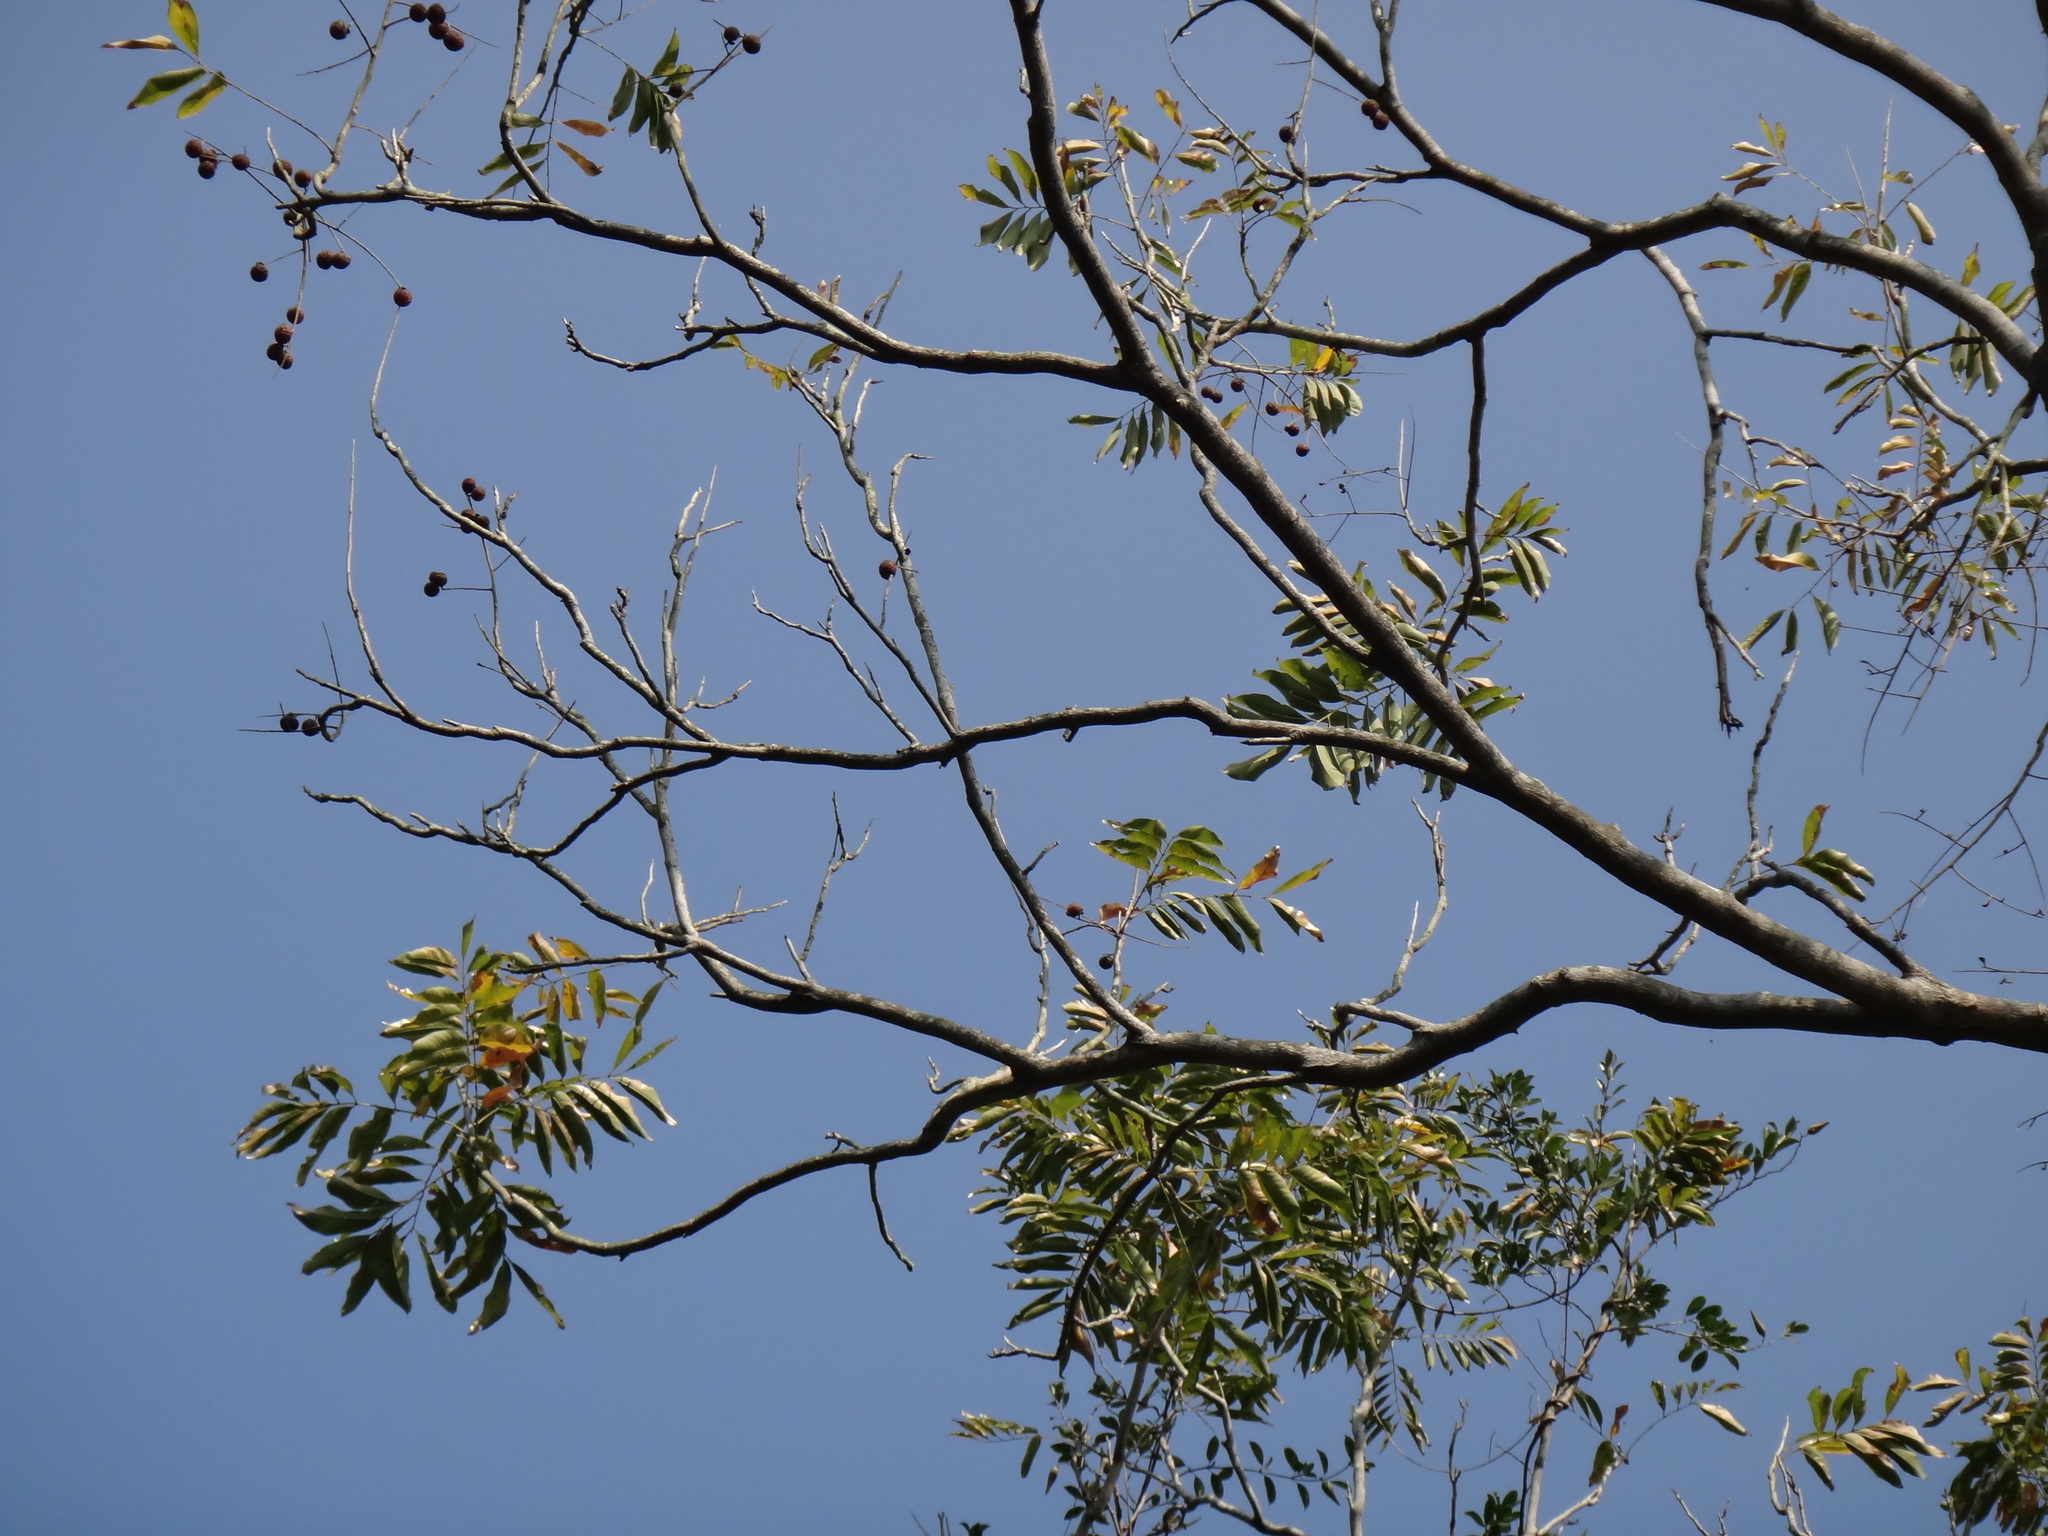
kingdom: Plantae
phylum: Tracheophyta
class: Magnoliopsida
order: Sapindales
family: Sapindaceae
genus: Sapindus
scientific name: Sapindus mukorossi
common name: Chinese soapberry
